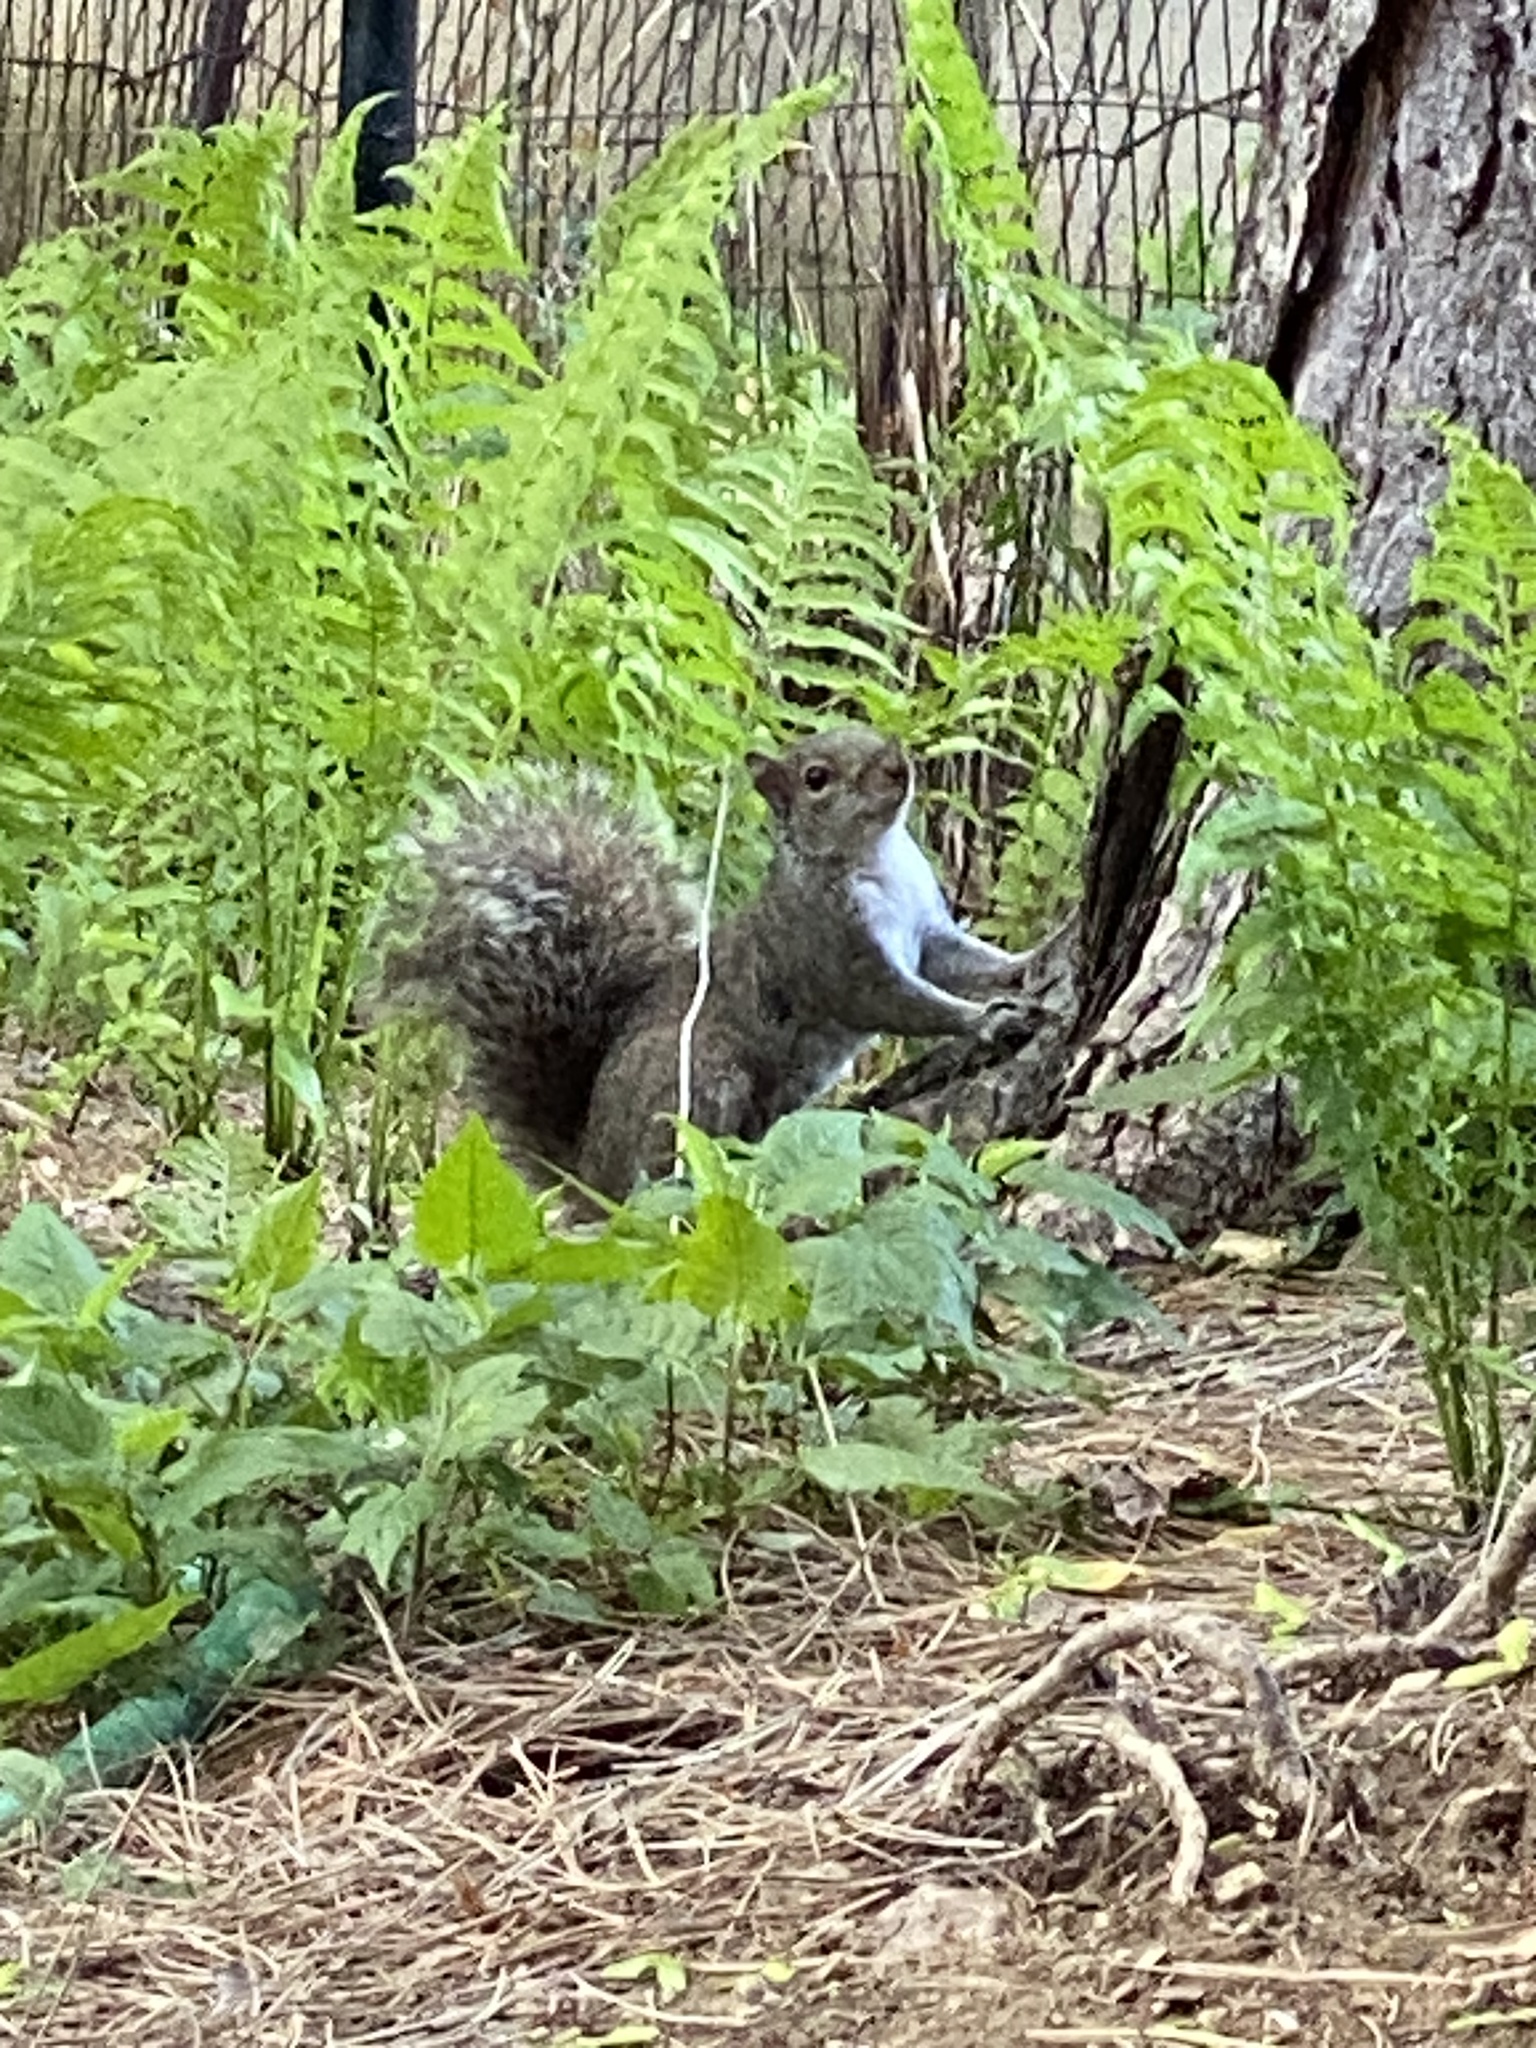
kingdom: Animalia
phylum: Chordata
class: Mammalia
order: Rodentia
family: Sciuridae
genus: Sciurus
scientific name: Sciurus carolinensis
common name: Eastern gray squirrel
